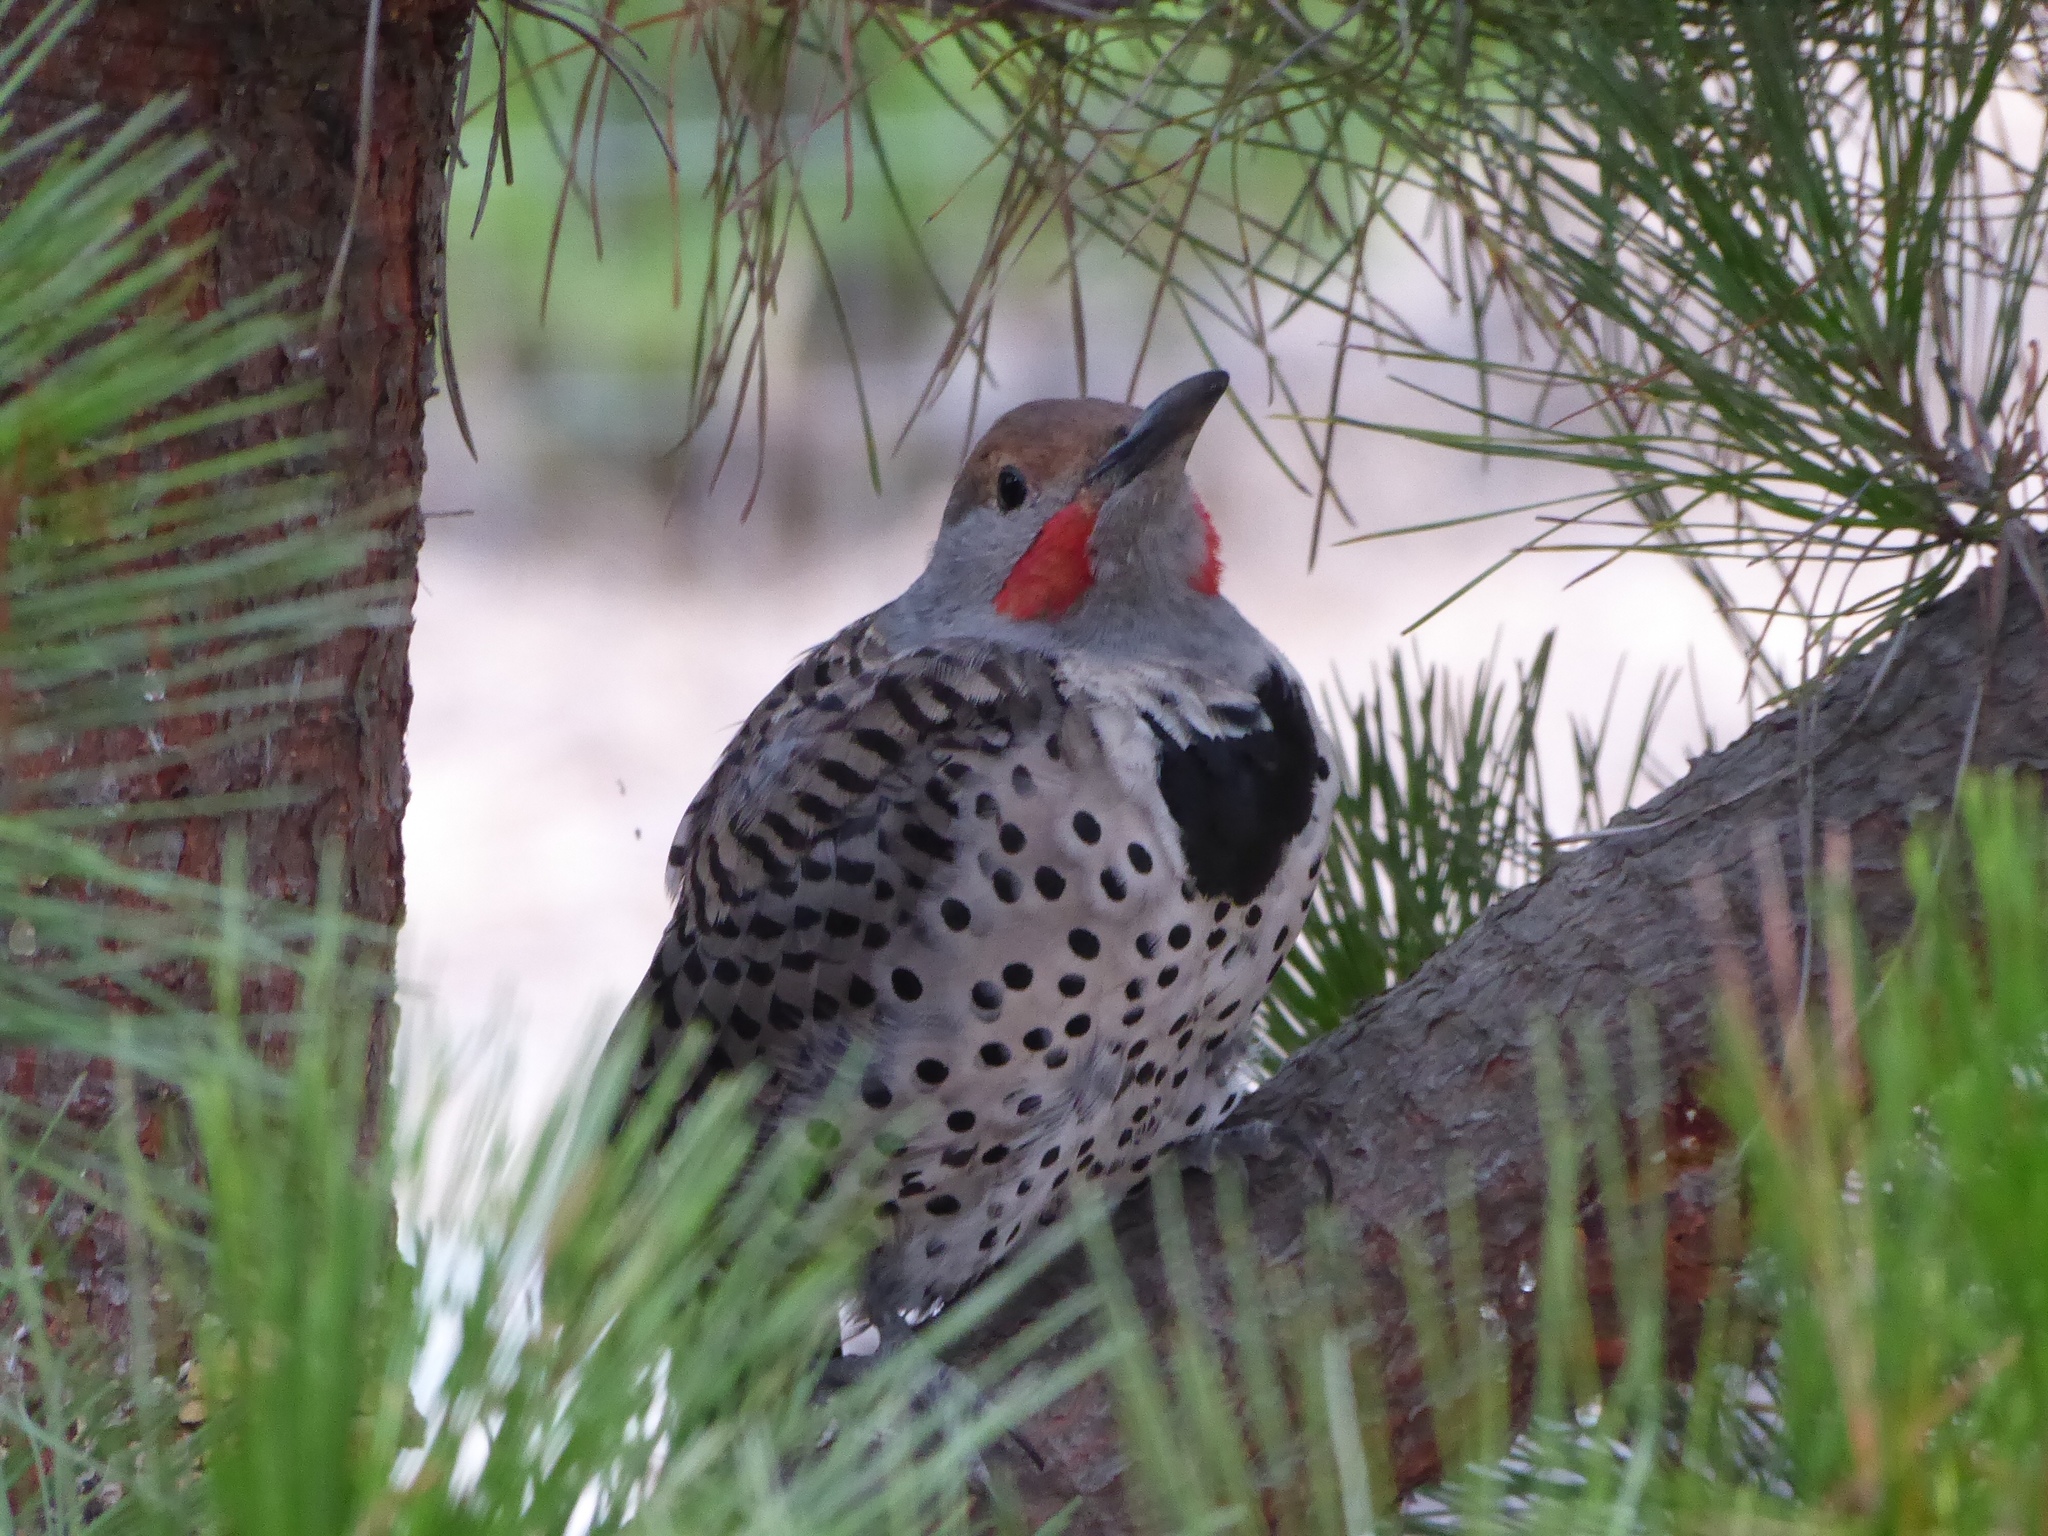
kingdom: Animalia
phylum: Chordata
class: Aves
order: Piciformes
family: Picidae
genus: Colaptes
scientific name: Colaptes auratus
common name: Northern flicker
